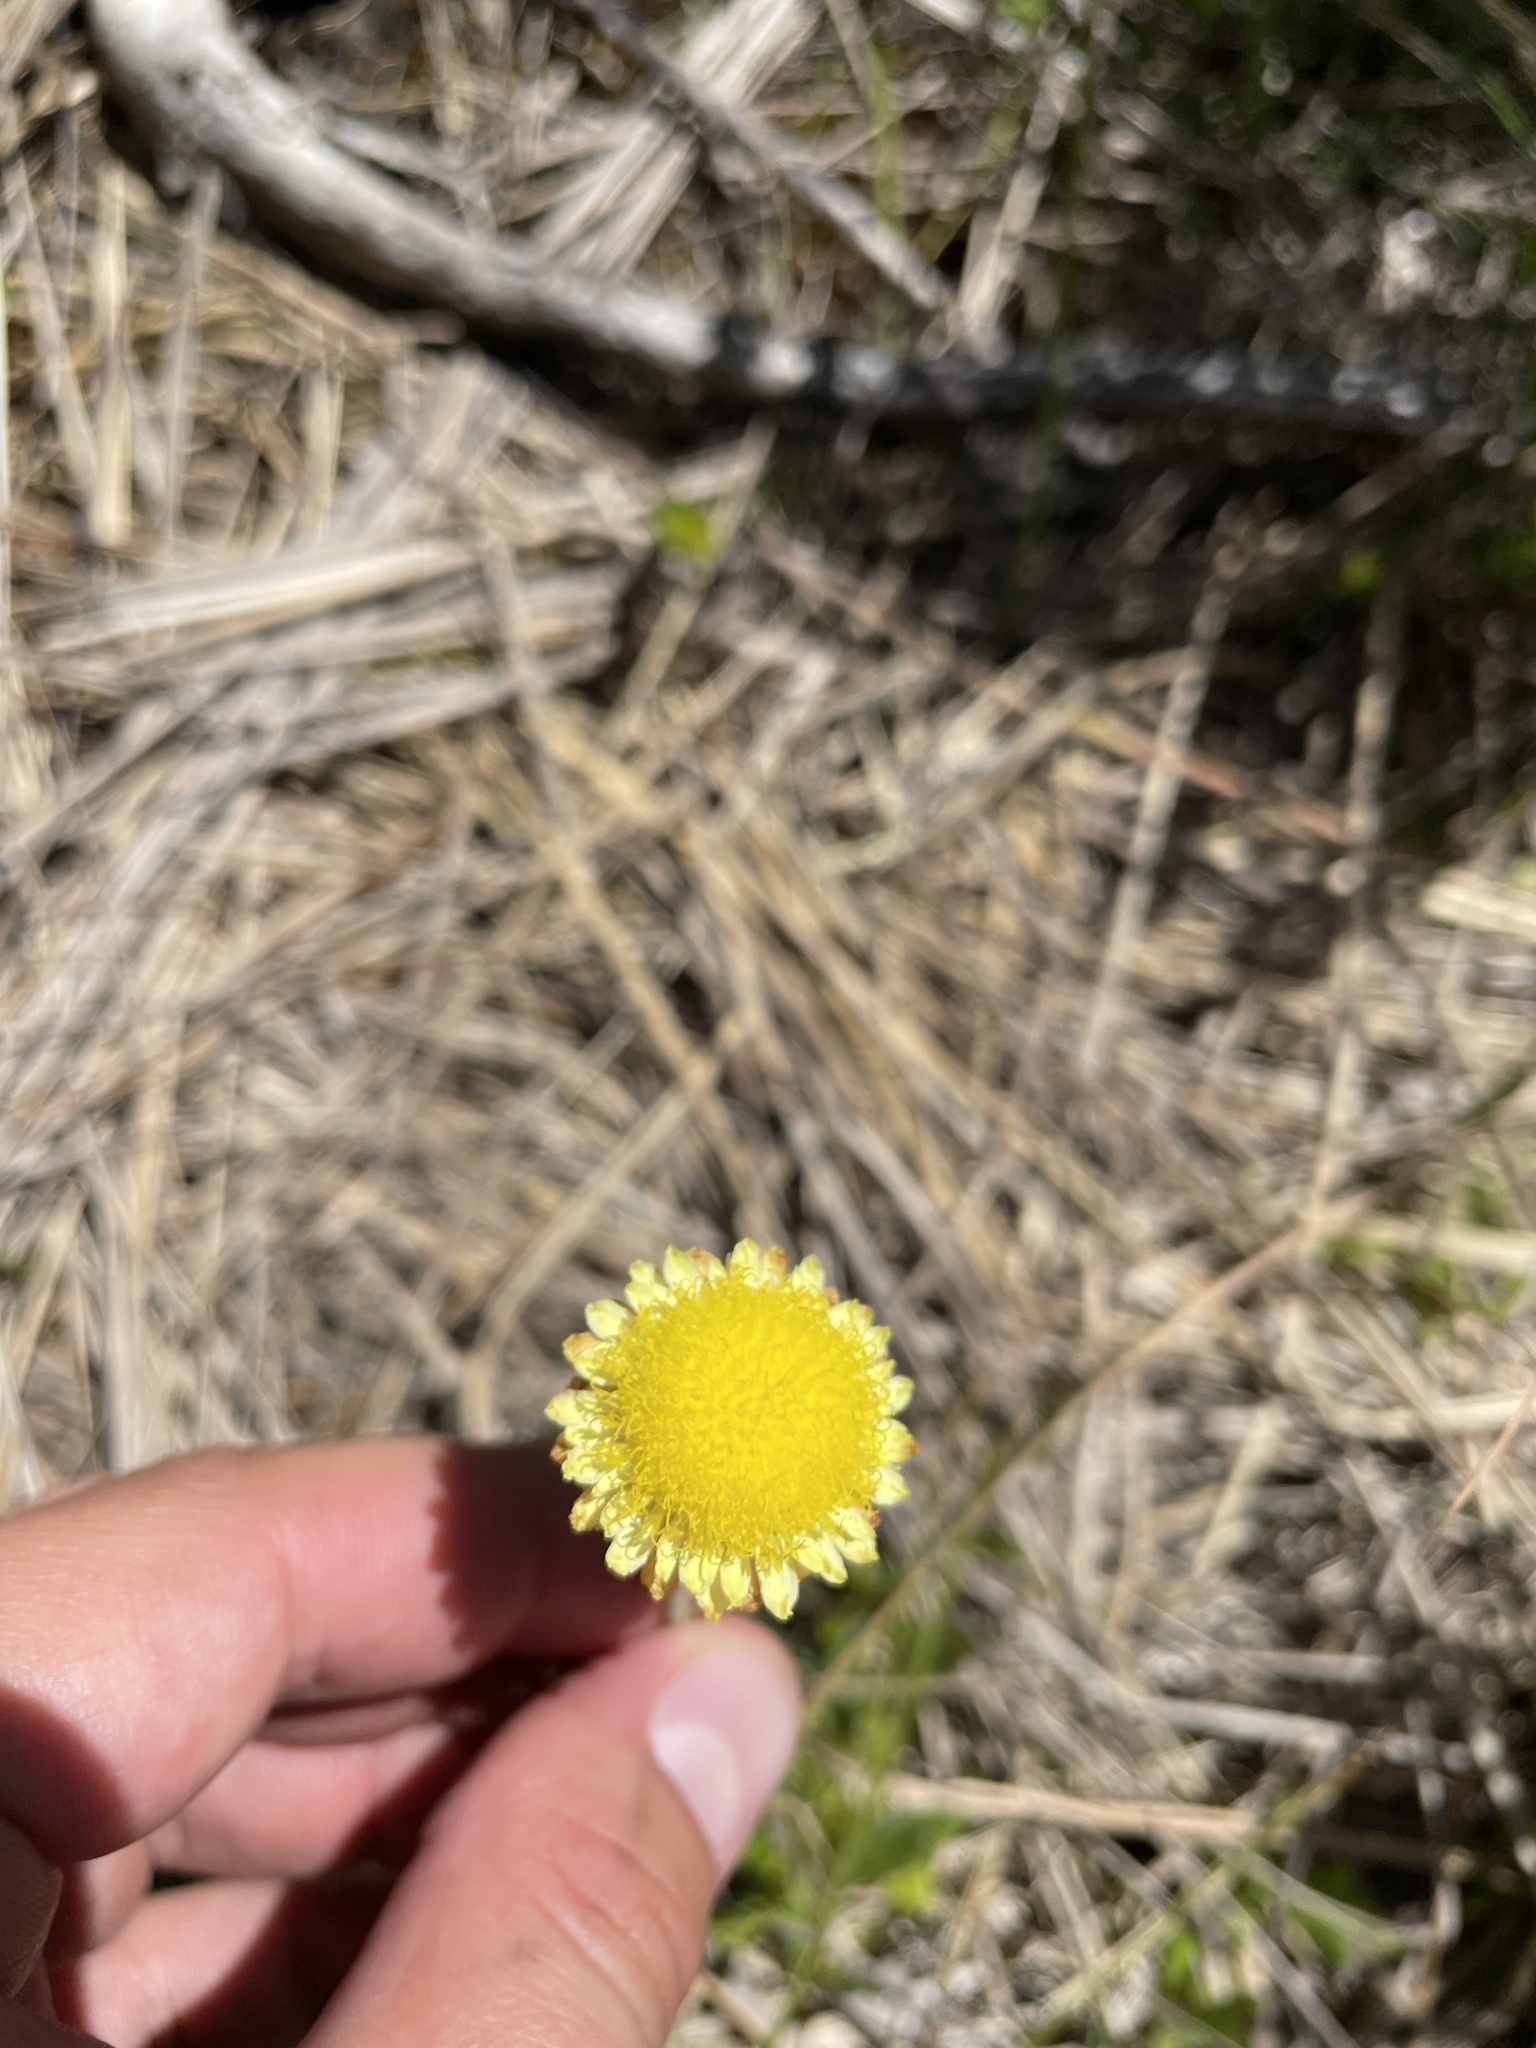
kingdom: Plantae
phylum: Tracheophyta
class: Magnoliopsida
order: Asterales
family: Asteraceae
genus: Coronidium
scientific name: Coronidium scorpioides
